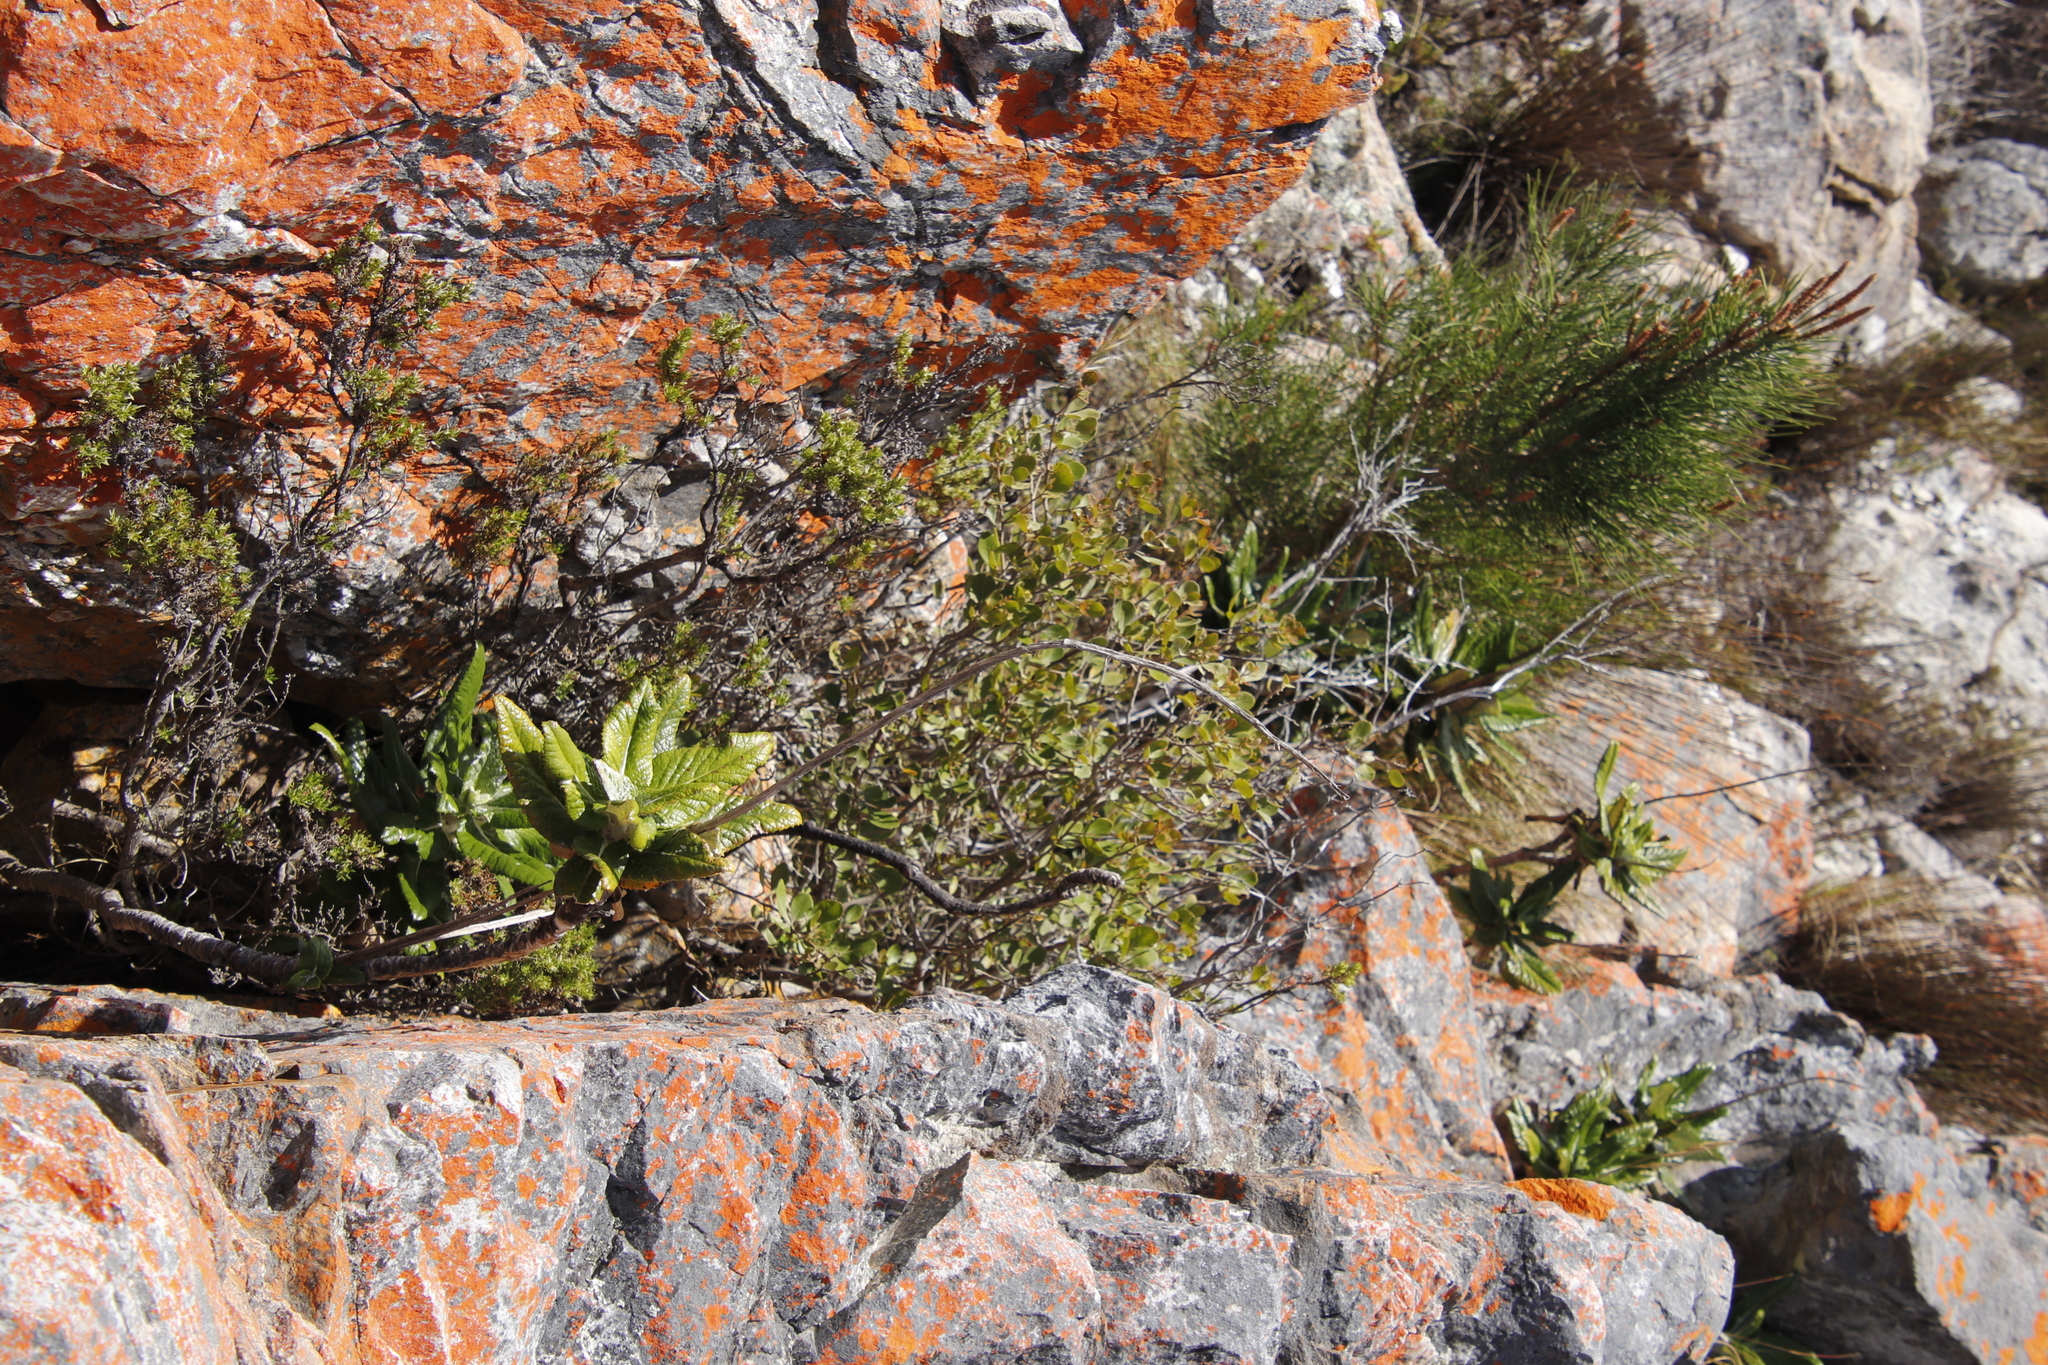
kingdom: Plantae
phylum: Tracheophyta
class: Pinopsida
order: Pinales
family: Pinaceae
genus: Pinus
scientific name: Pinus pinaster
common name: Maritime pine
